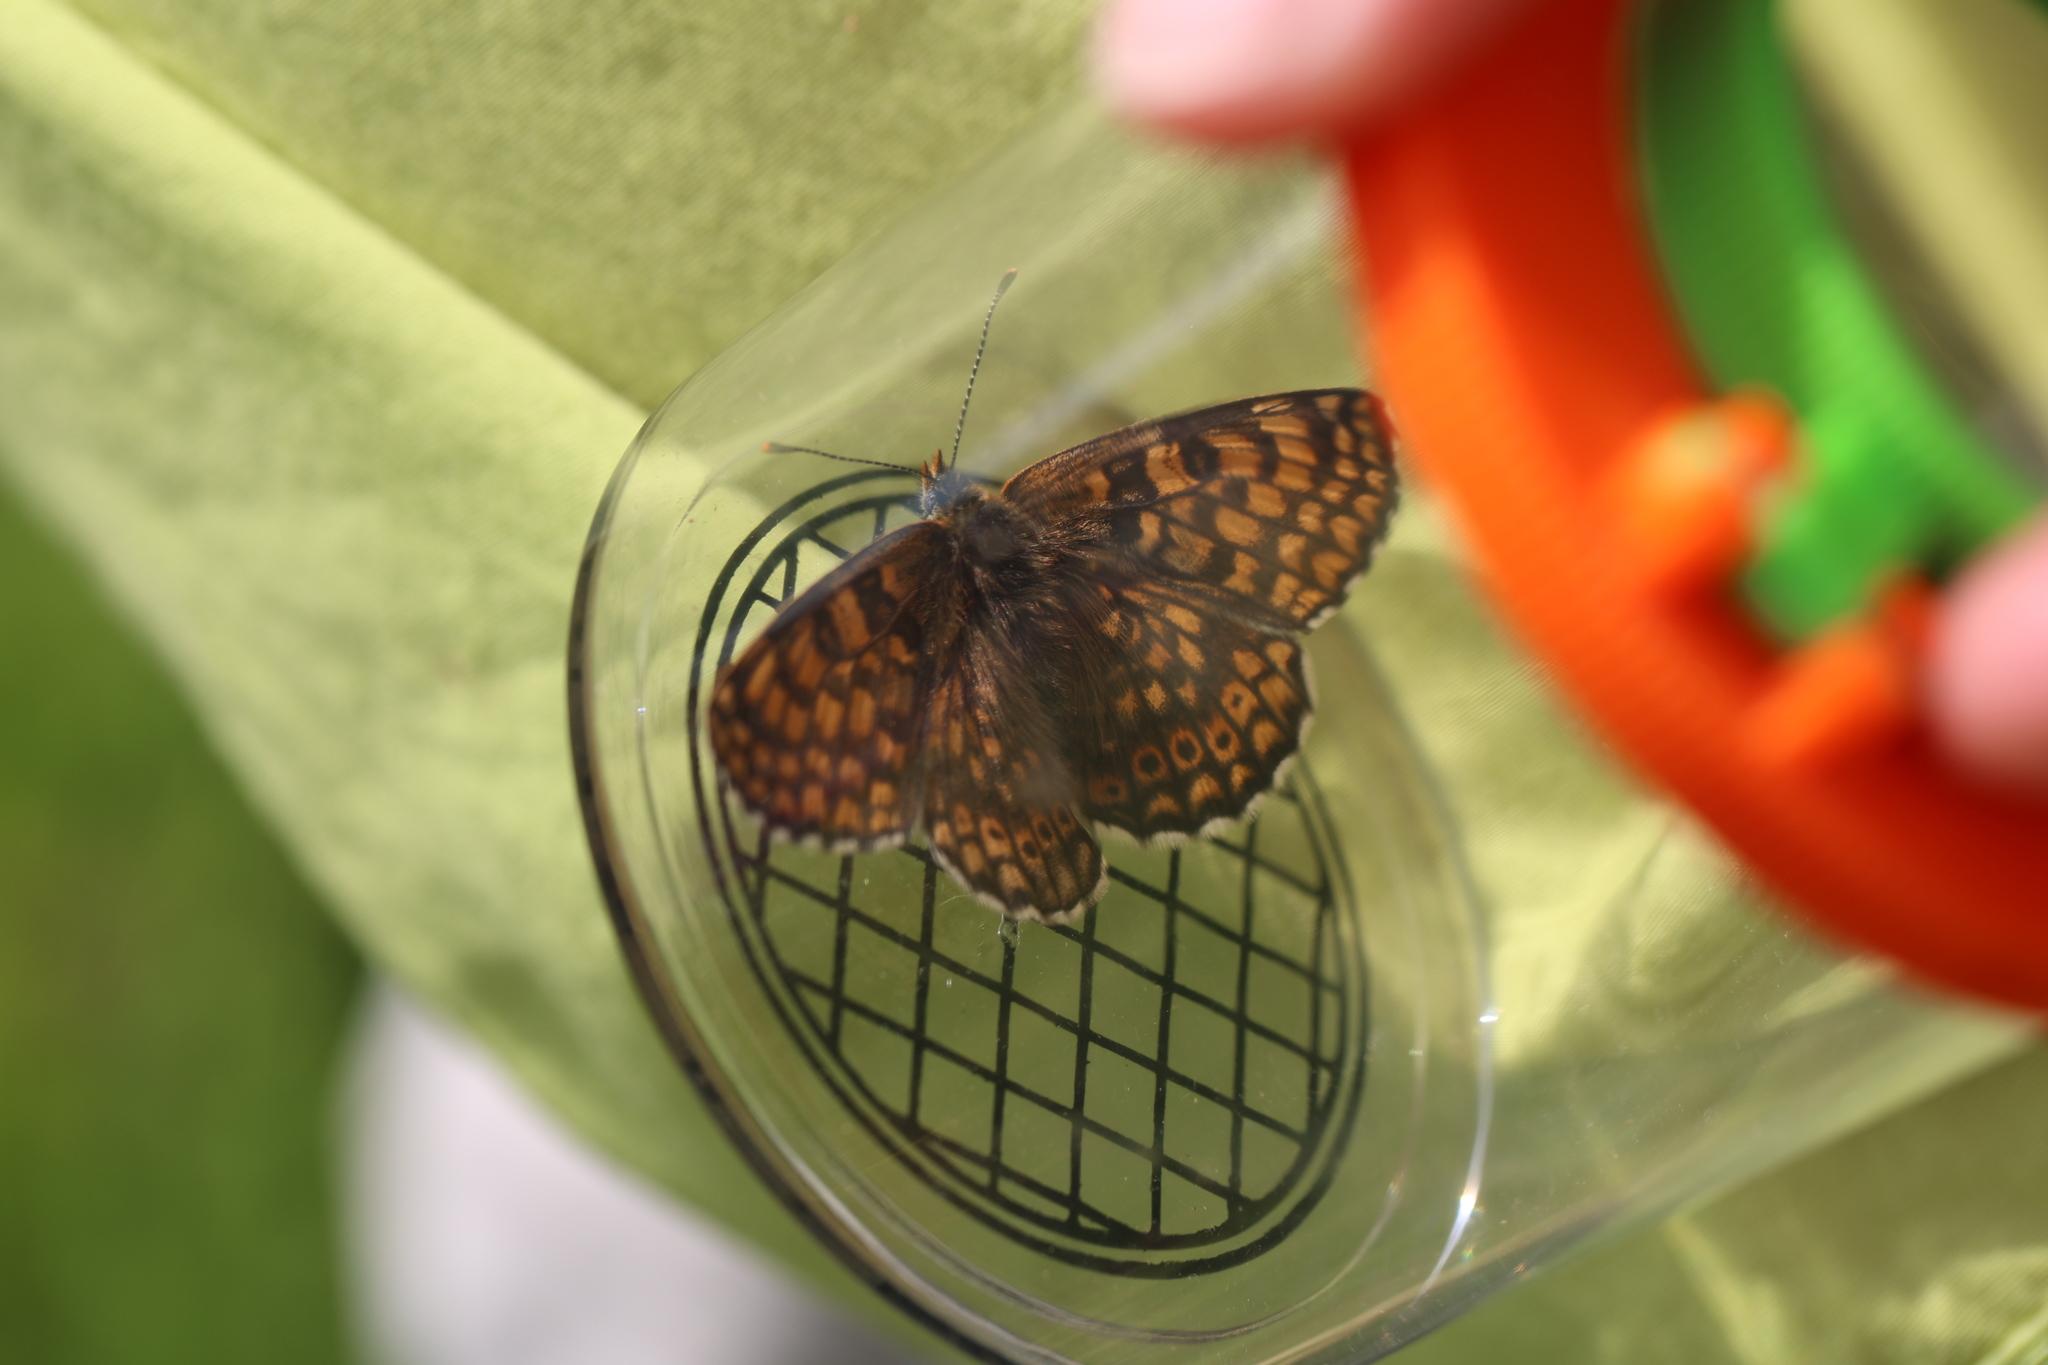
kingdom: Animalia
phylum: Arthropoda
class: Insecta
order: Lepidoptera
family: Nymphalidae
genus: Melitaea
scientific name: Melitaea cinxia
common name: Glanville fritillary
